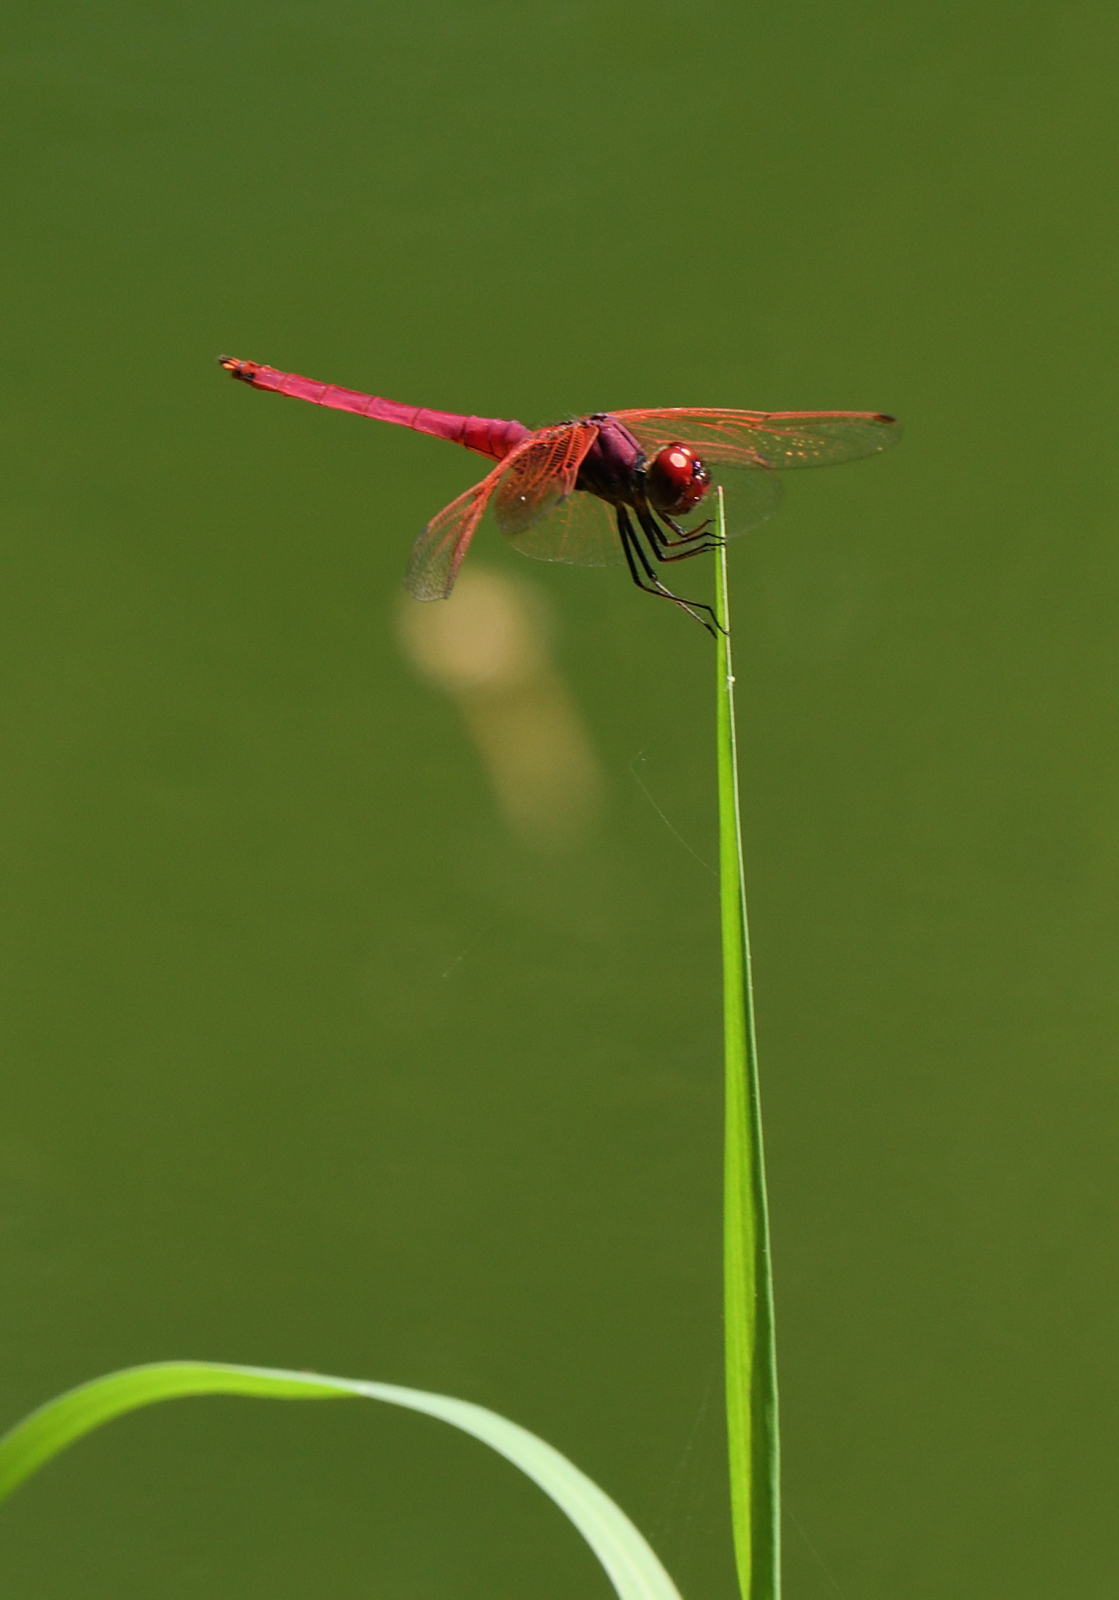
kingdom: Animalia
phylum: Arthropoda
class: Insecta
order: Odonata
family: Libellulidae
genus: Trithemis
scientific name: Trithemis aurora
